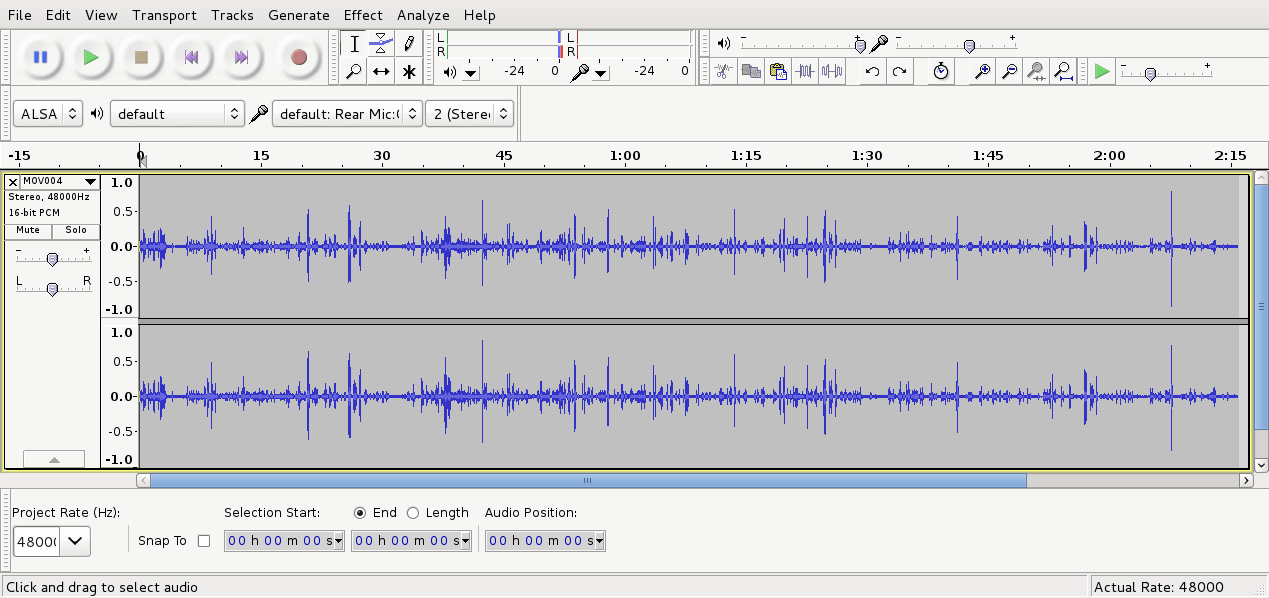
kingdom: Animalia
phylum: Chordata
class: Aves
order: Passeriformes
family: Meliphagidae
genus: Prosthemadera
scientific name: Prosthemadera novaeseelandiae
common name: Tui
